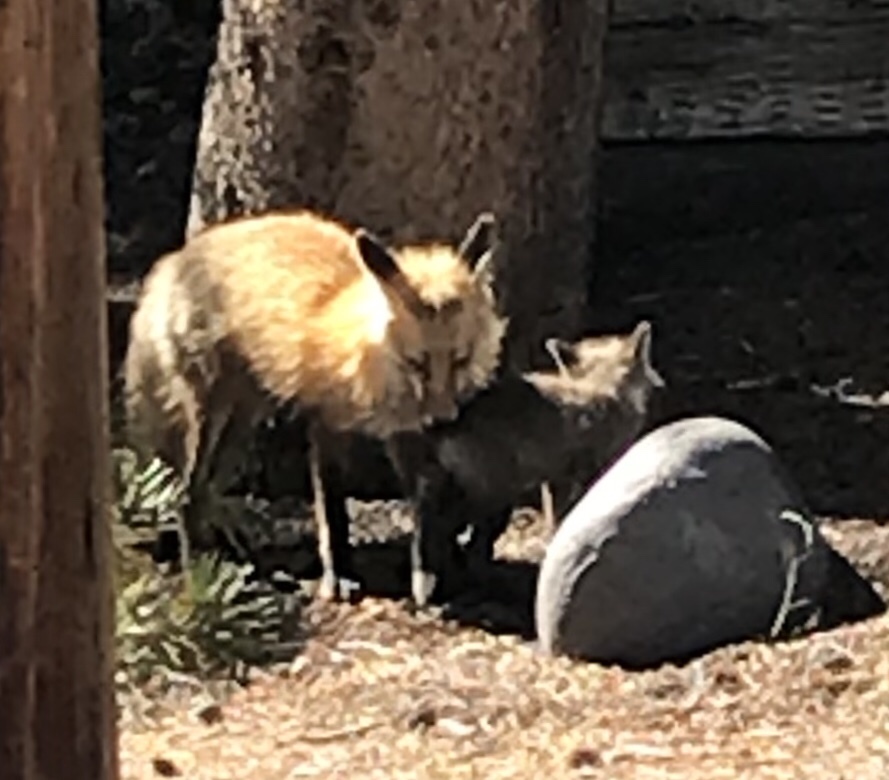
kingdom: Animalia
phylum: Chordata
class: Mammalia
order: Carnivora
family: Canidae
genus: Vulpes
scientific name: Vulpes vulpes
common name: Red fox
